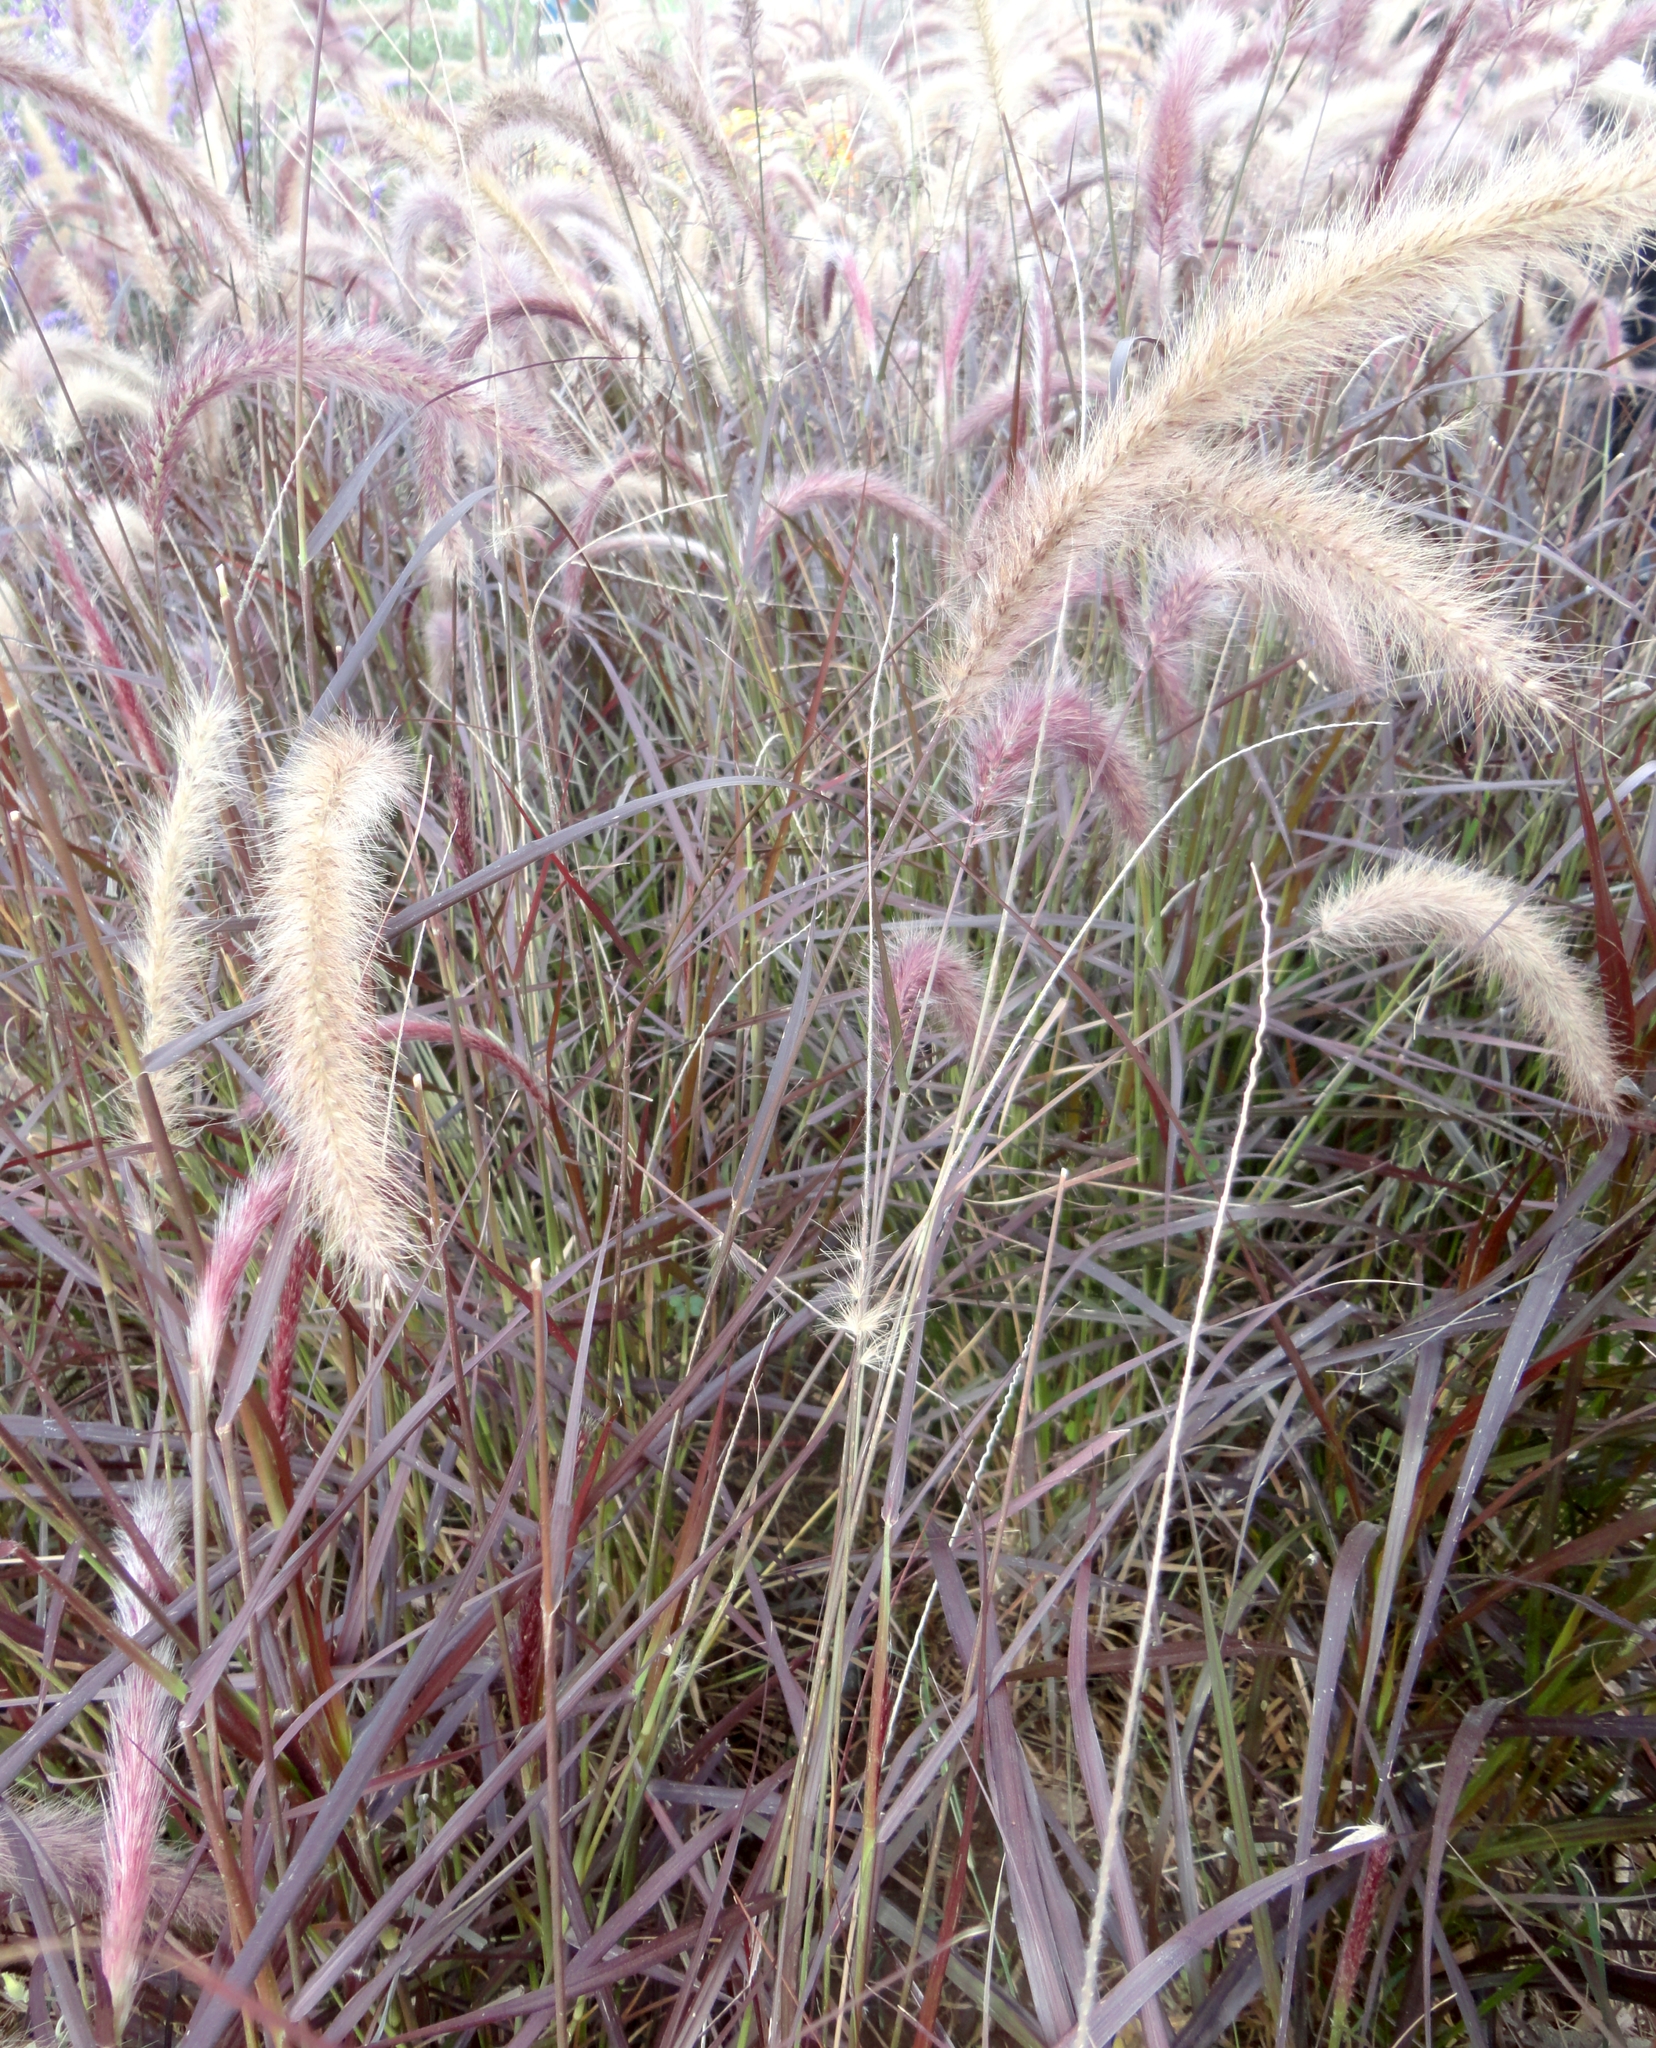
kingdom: Plantae
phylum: Tracheophyta
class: Liliopsida
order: Poales
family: Poaceae
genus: Cenchrus
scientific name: Cenchrus setaceus
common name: Crimson fountaingrass
